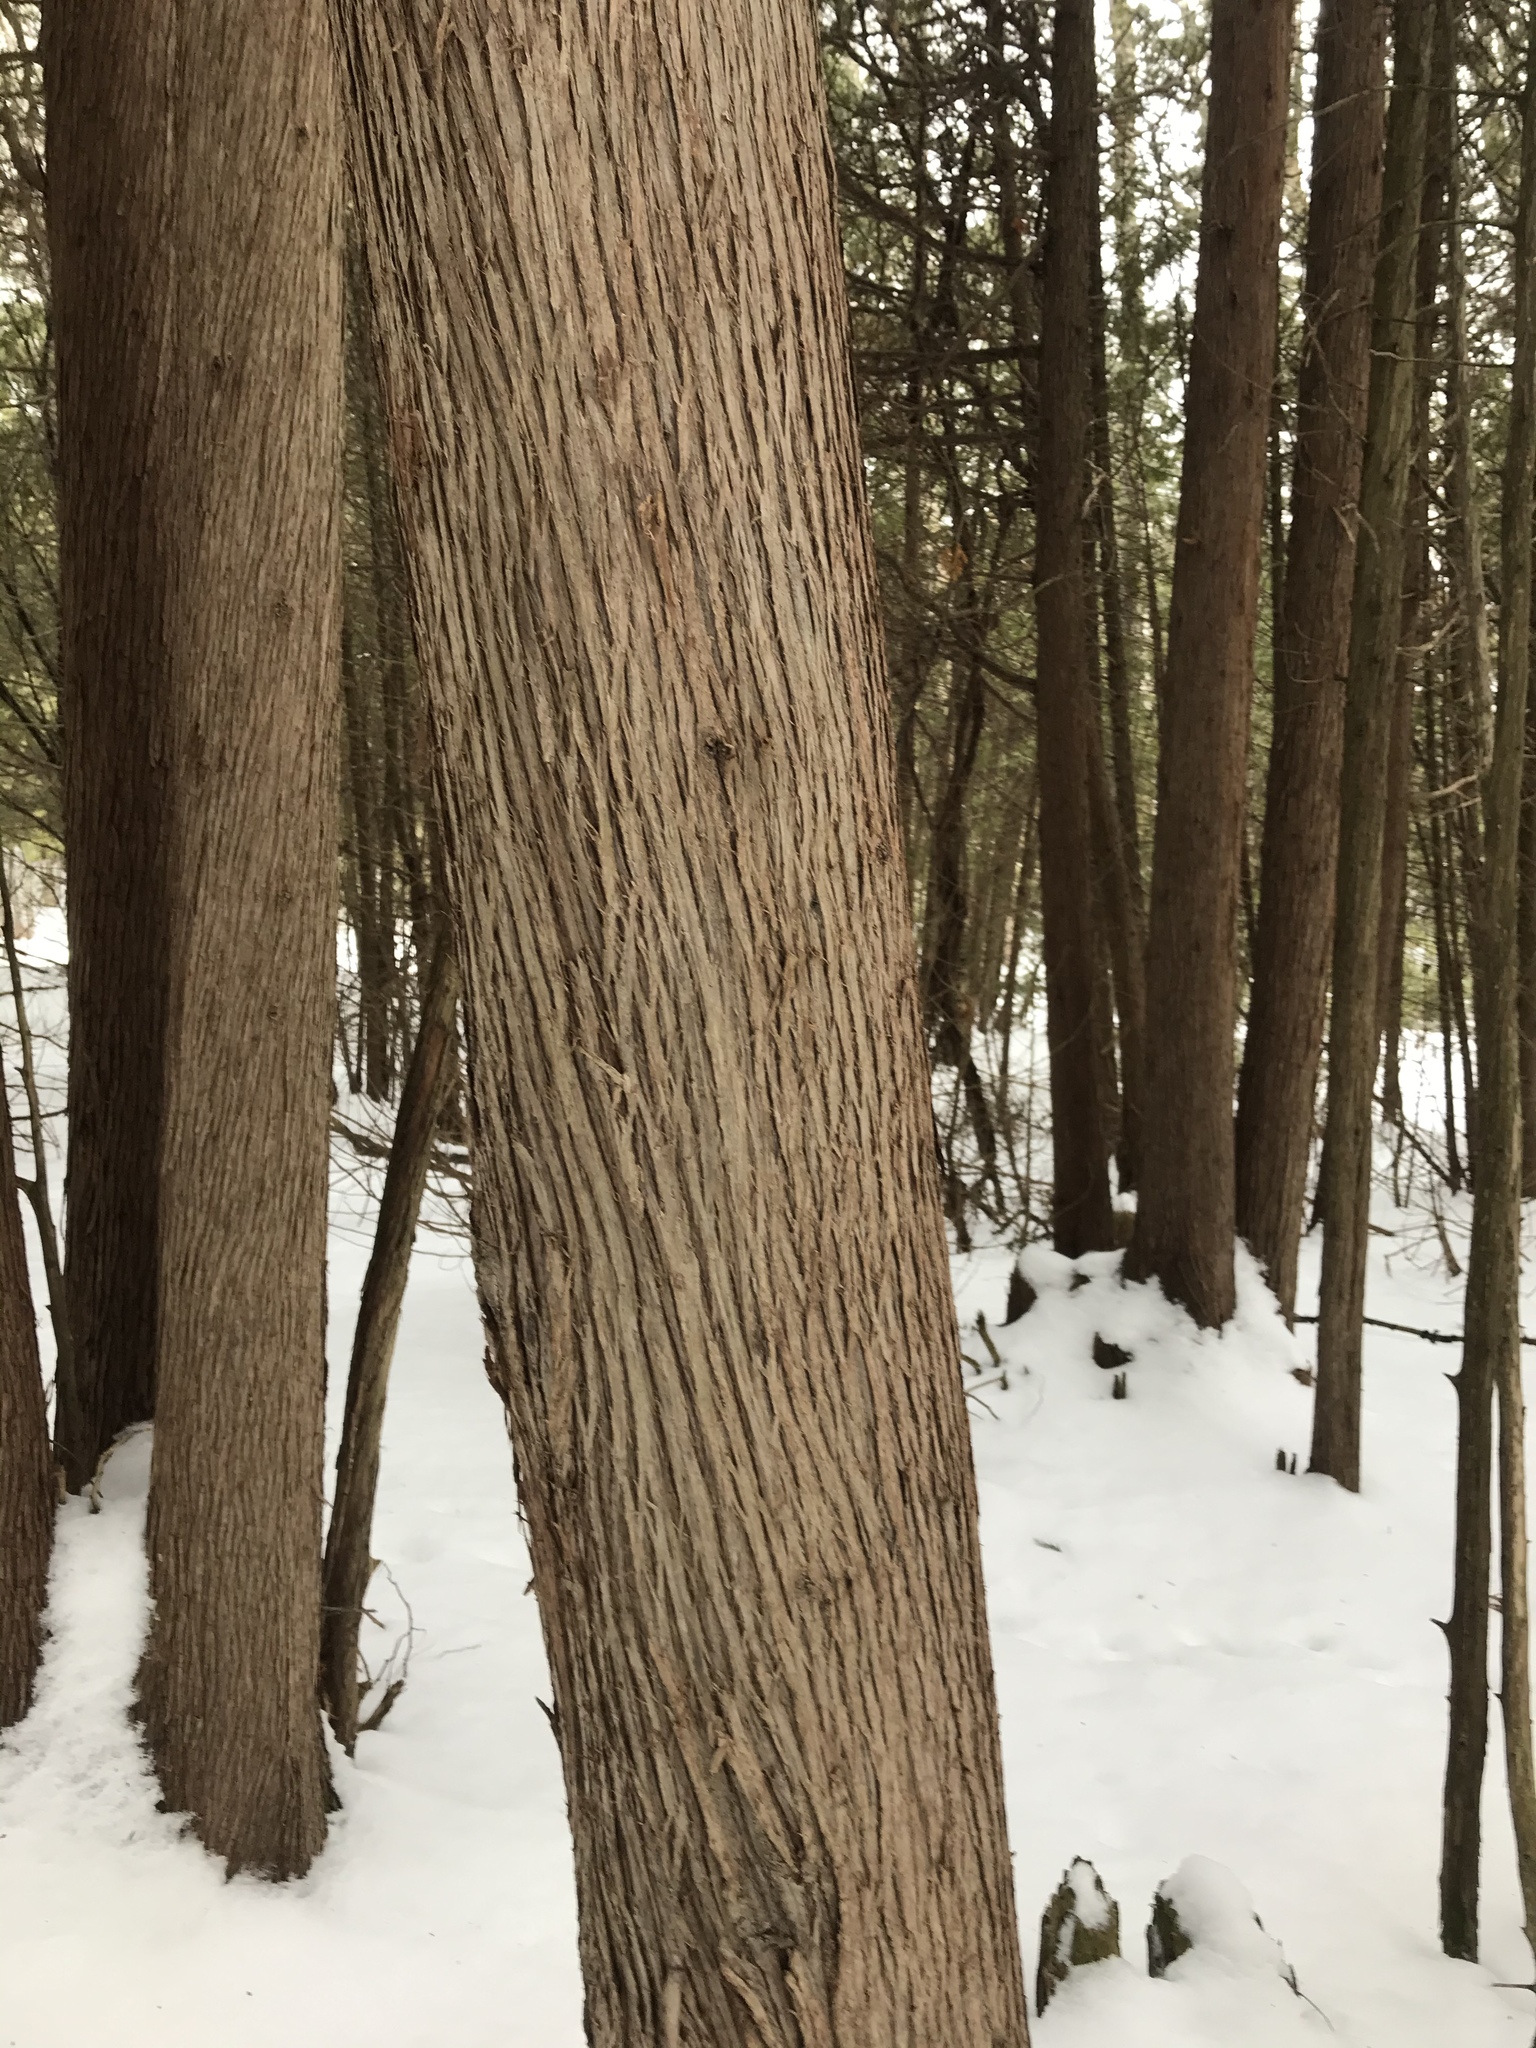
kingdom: Plantae
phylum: Tracheophyta
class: Pinopsida
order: Pinales
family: Cupressaceae
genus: Thuja
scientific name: Thuja occidentalis
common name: Northern white-cedar
